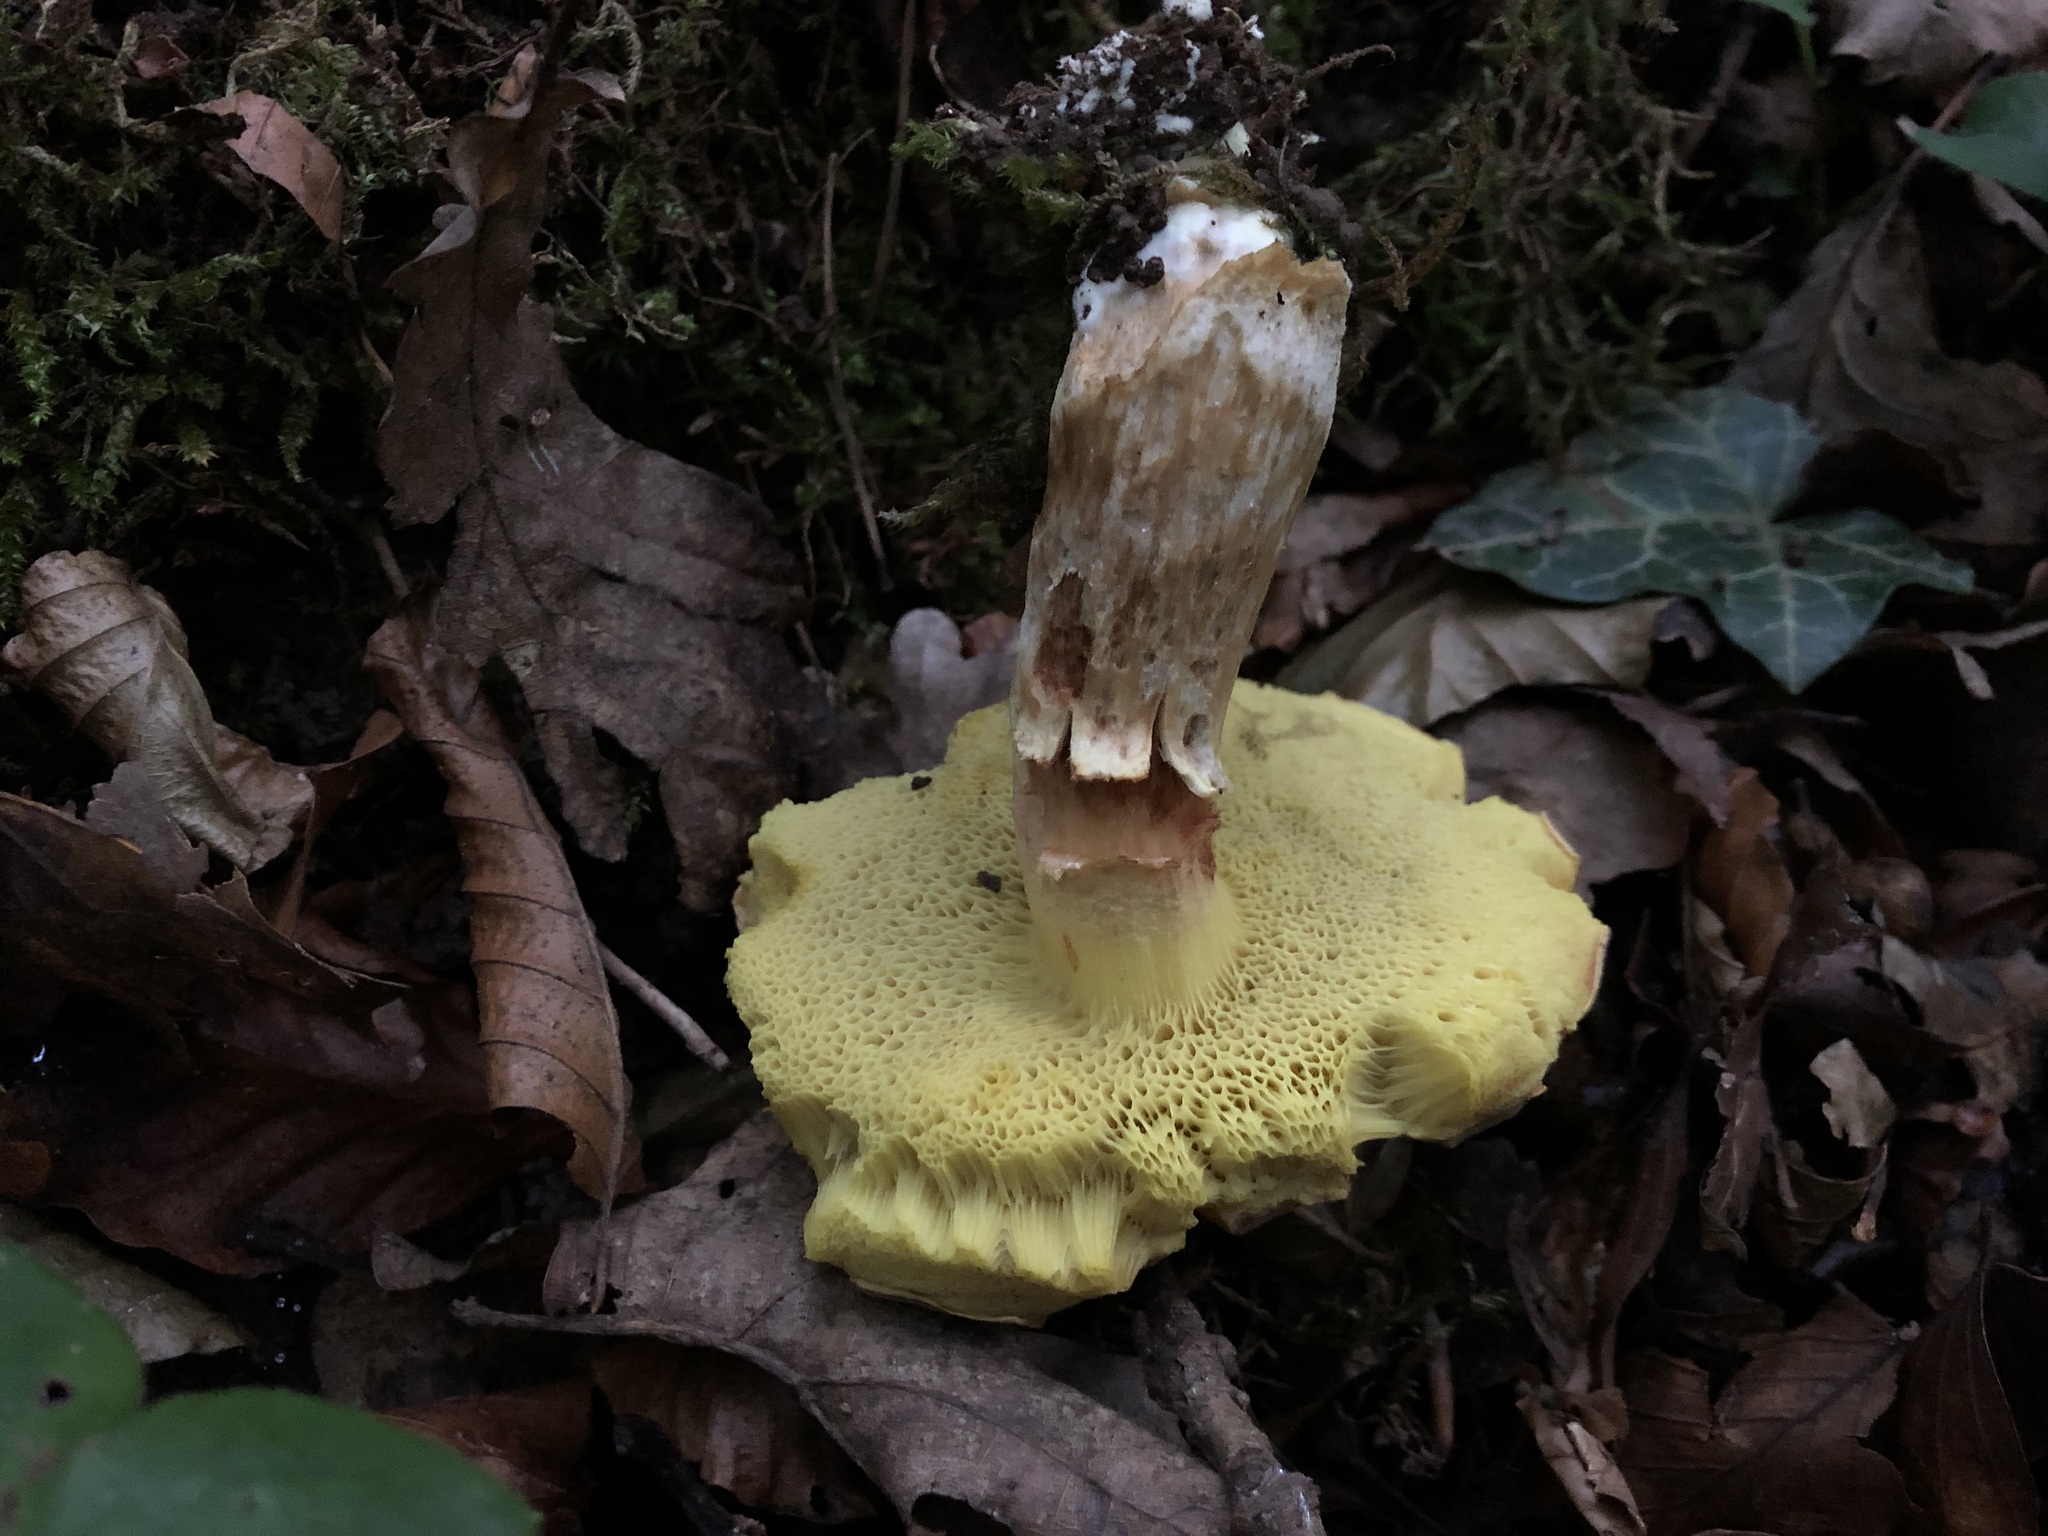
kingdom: Fungi
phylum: Basidiomycota
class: Agaricomycetes
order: Boletales
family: Boletaceae
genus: Xerocomus
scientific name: Xerocomus subtomentosus
